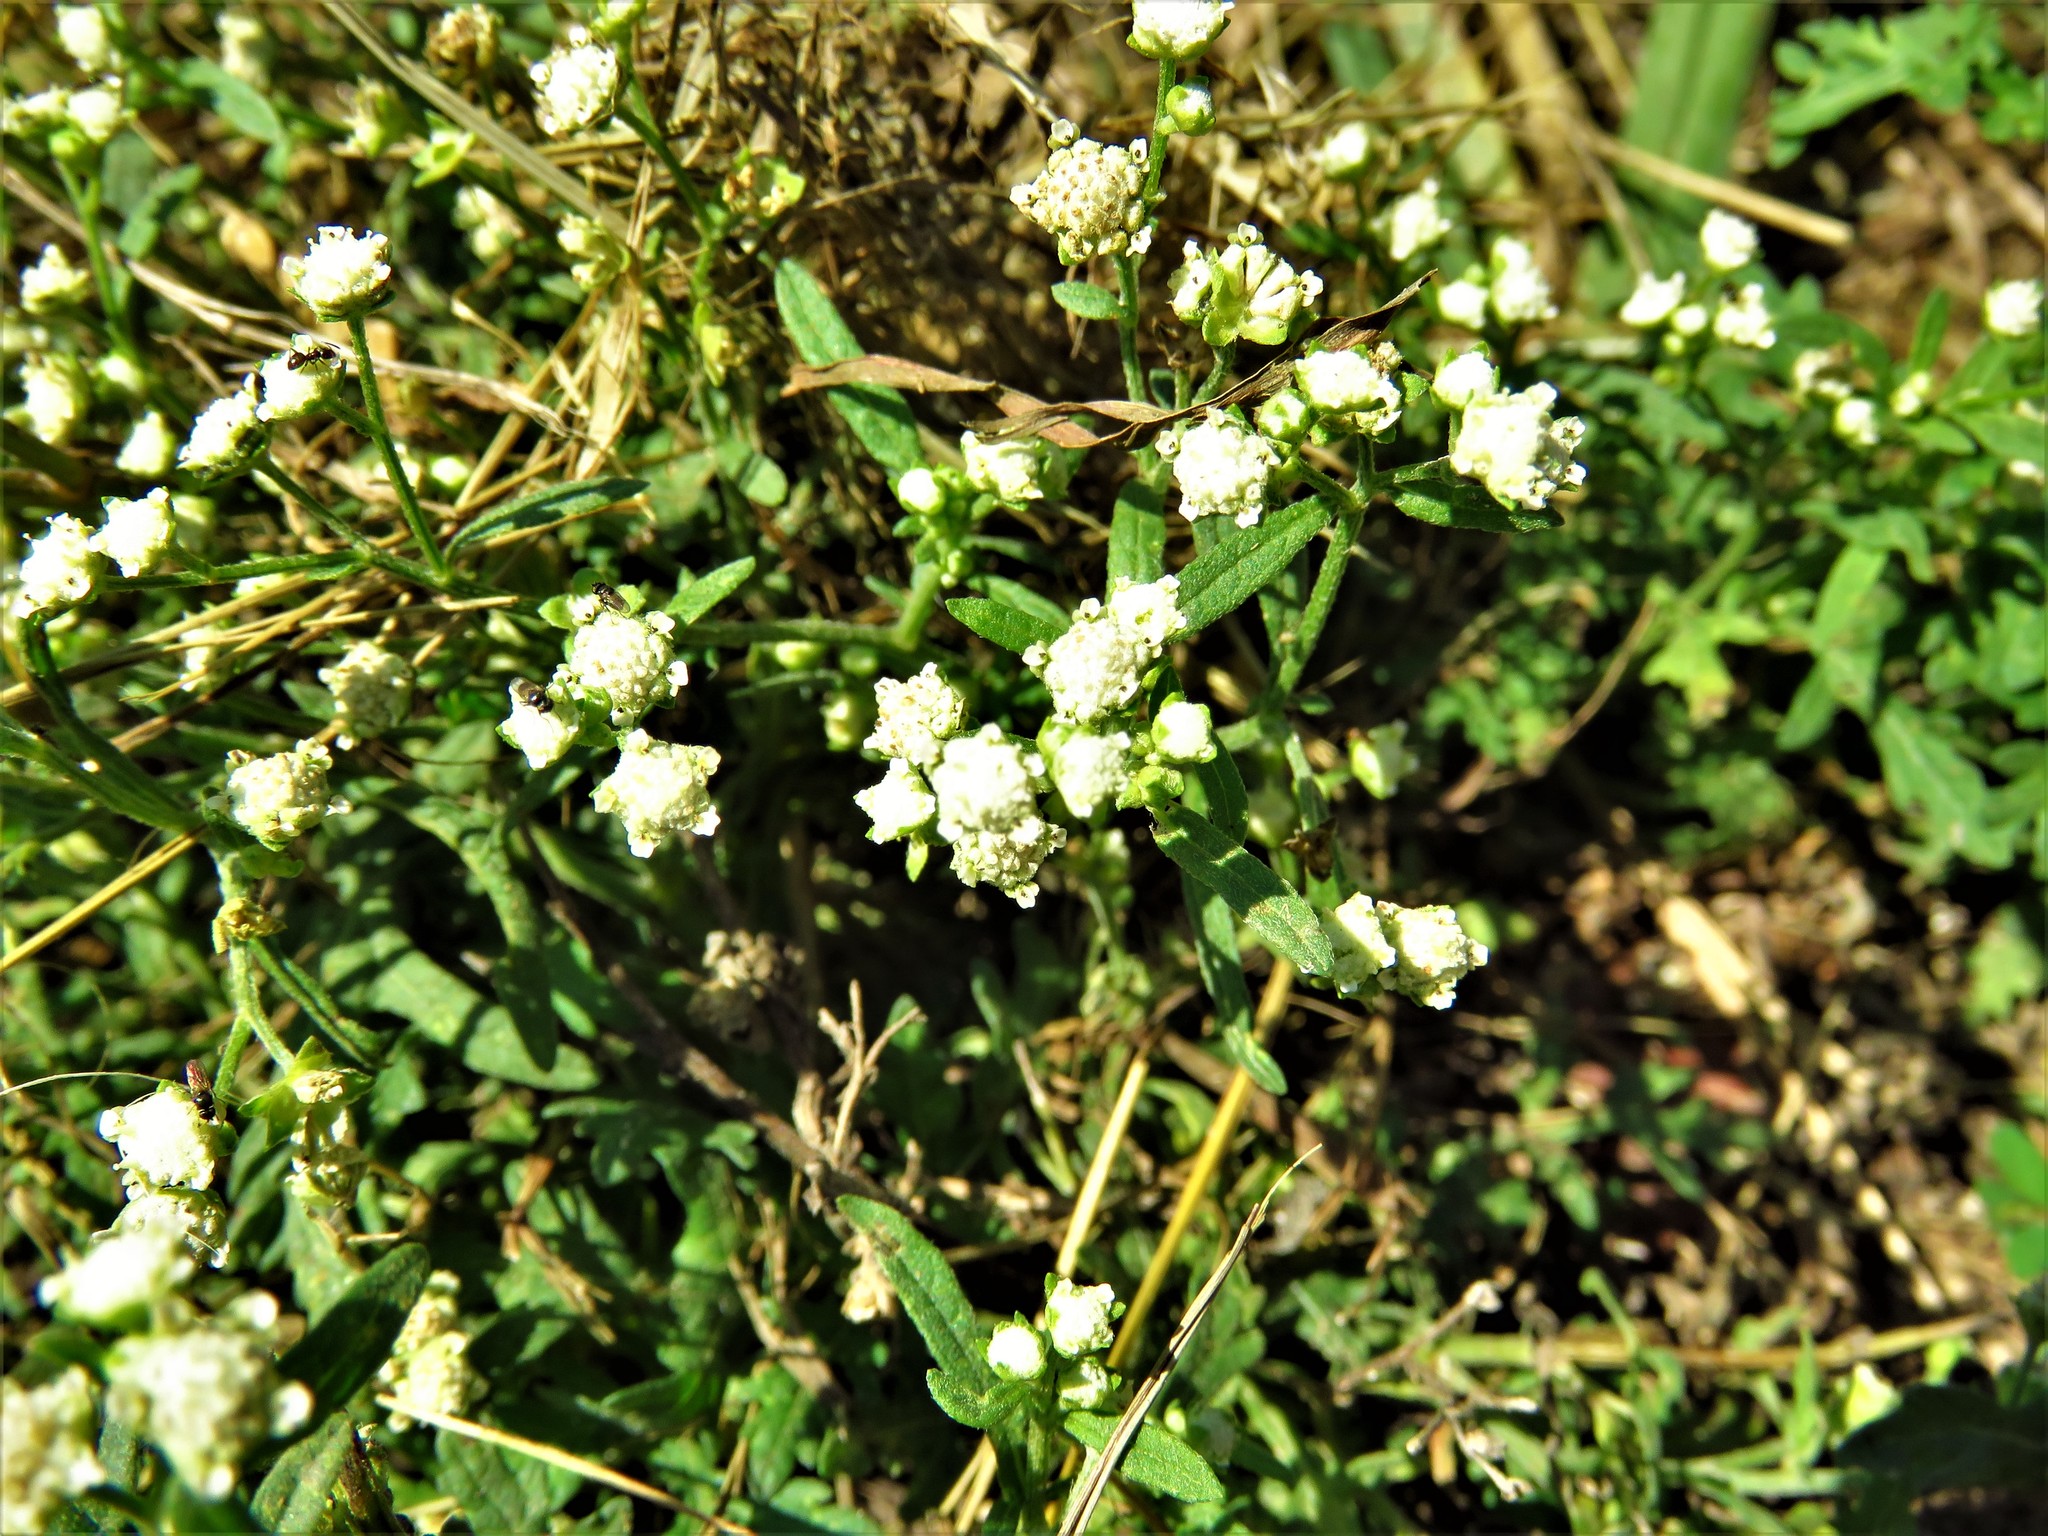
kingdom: Plantae
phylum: Tracheophyta
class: Magnoliopsida
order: Asterales
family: Asteraceae
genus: Parthenium
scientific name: Parthenium hysterophorus
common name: Santa maria feverfew
